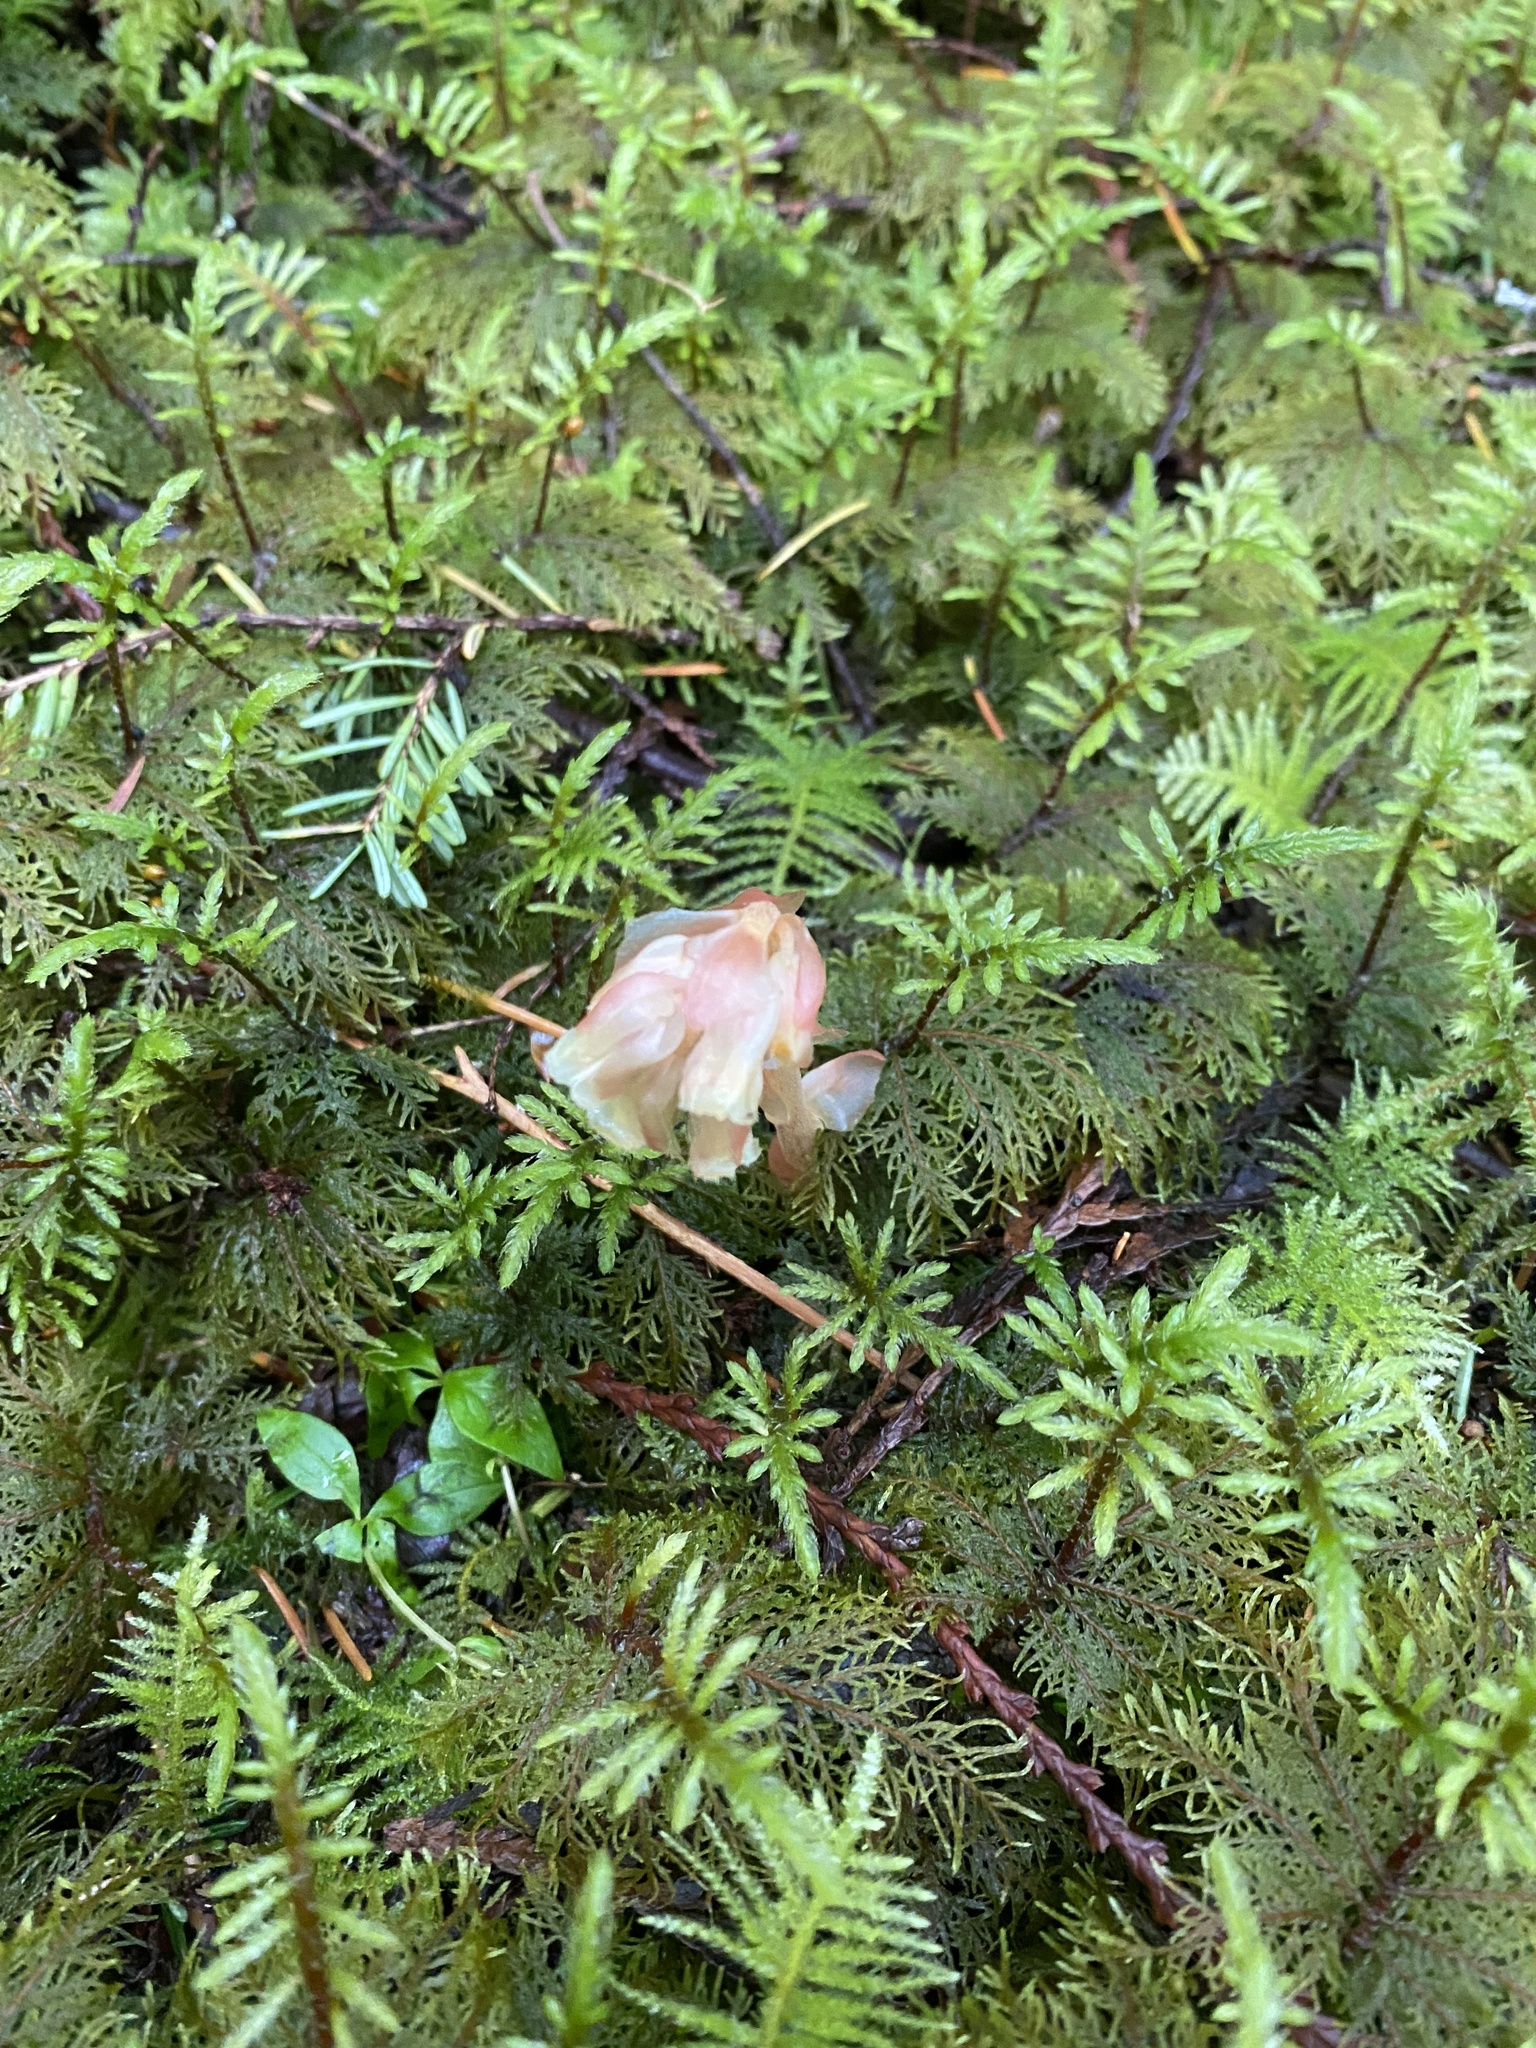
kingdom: Plantae
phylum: Tracheophyta
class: Magnoliopsida
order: Ericales
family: Ericaceae
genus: Hypopitys
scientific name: Hypopitys monotropa
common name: Yellow bird's-nest
